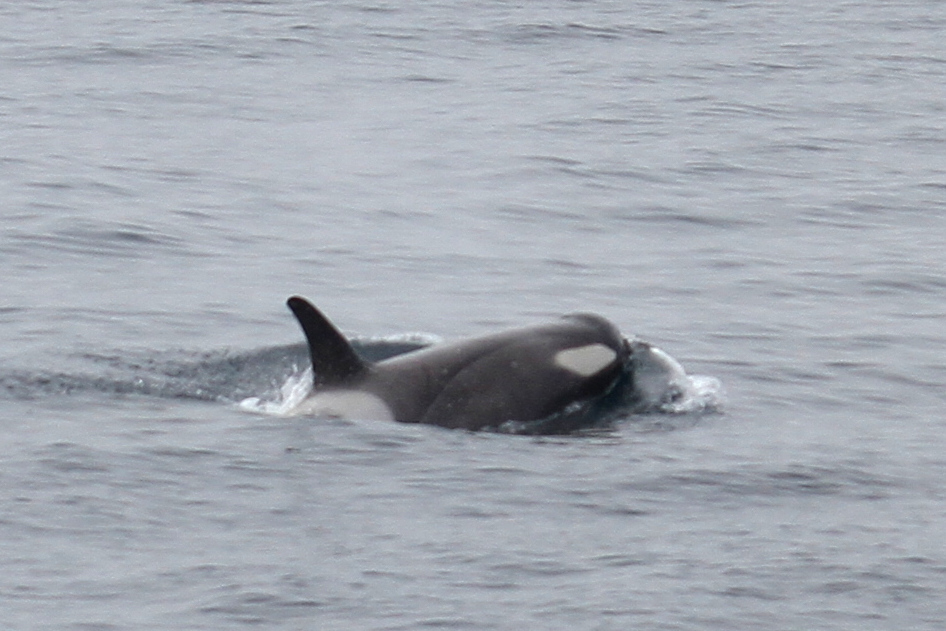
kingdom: Animalia
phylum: Chordata
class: Mammalia
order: Cetacea
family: Delphinidae
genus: Orcinus
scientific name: Orcinus orca
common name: Killer whale
